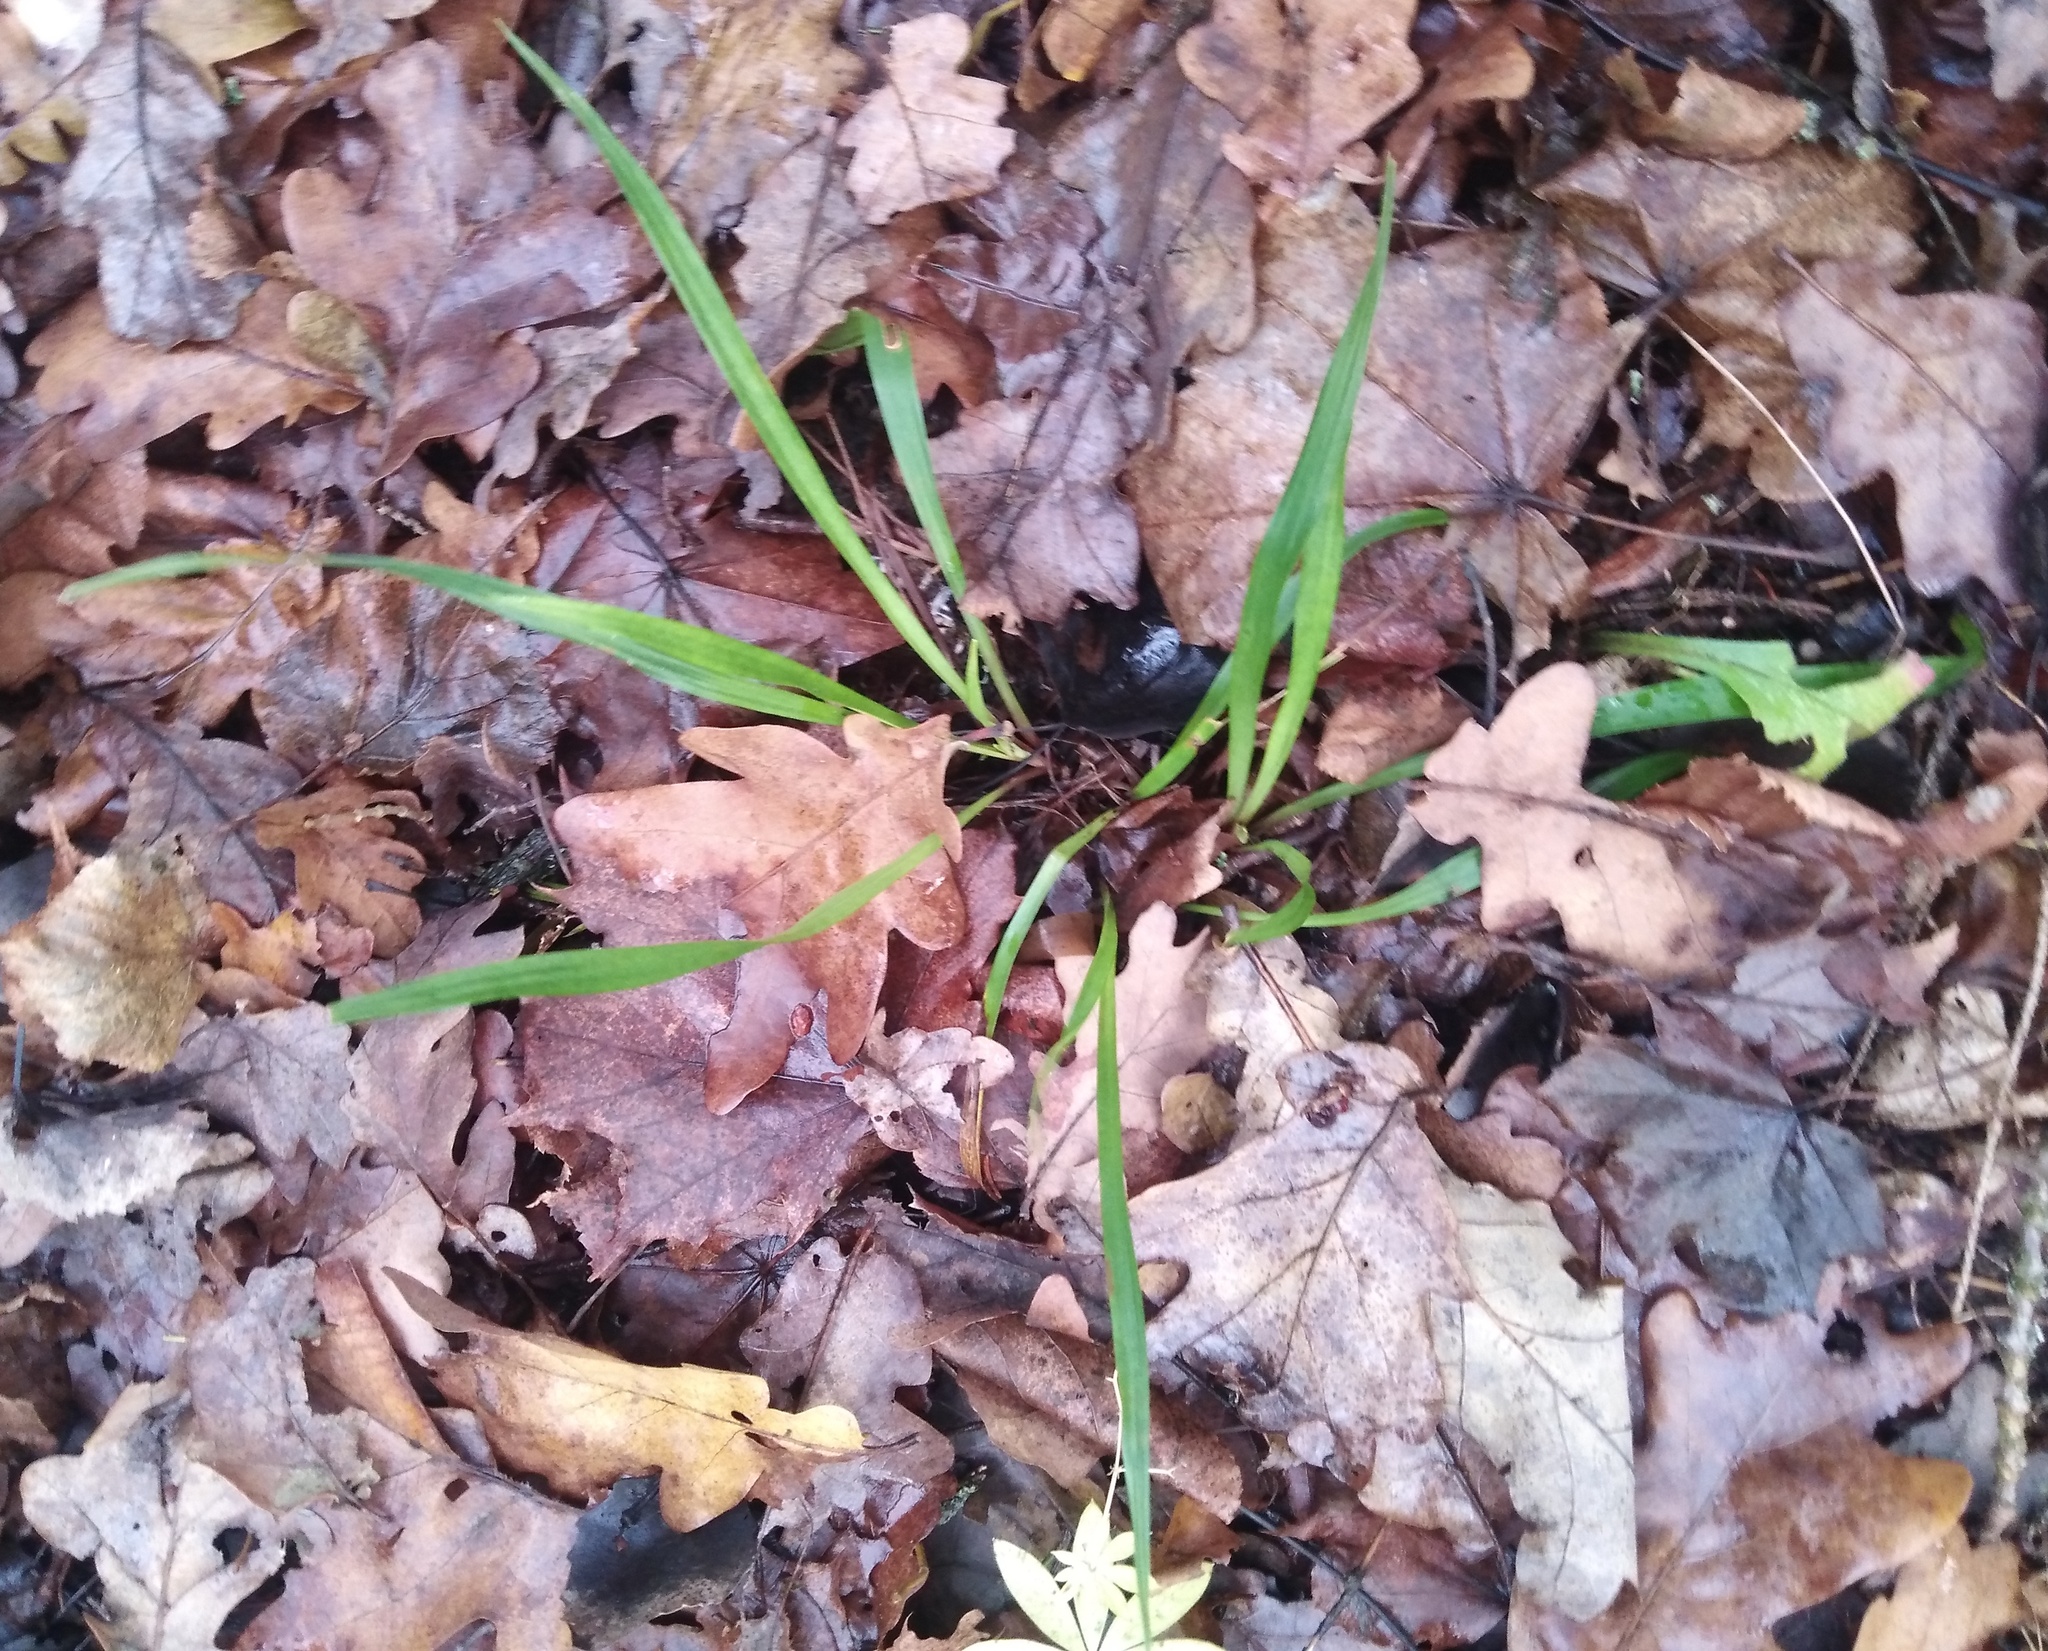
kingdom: Plantae
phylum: Tracheophyta
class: Liliopsida
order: Poales
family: Juncaceae
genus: Luzula
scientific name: Luzula pilosa
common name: Hairy wood-rush
